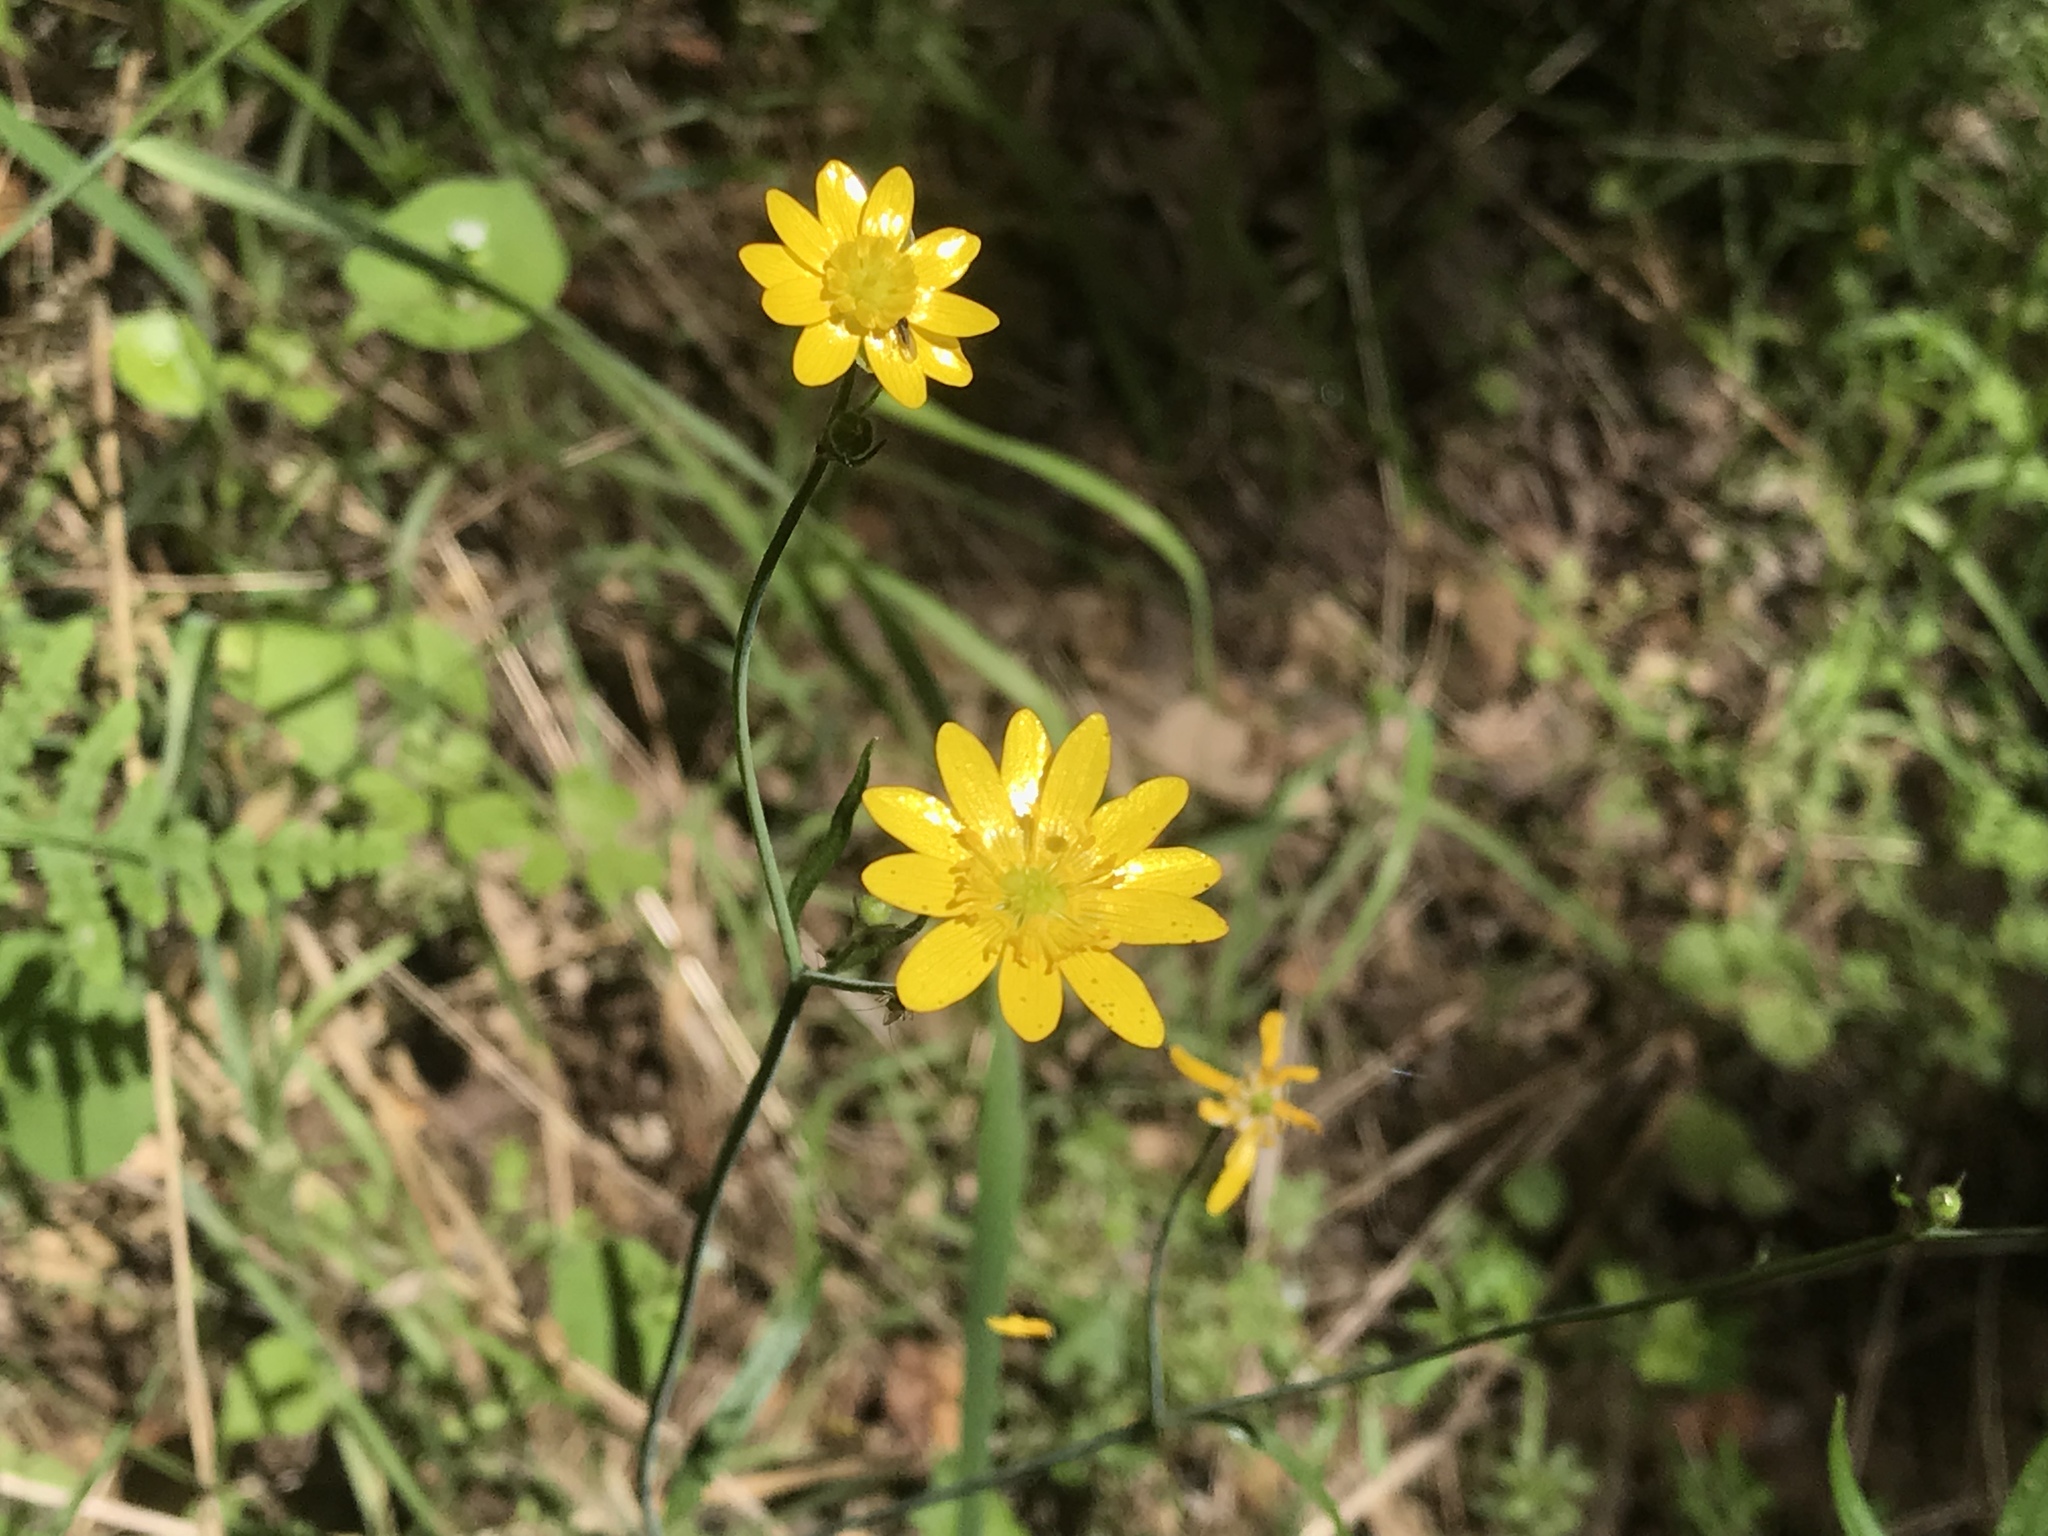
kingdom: Plantae
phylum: Tracheophyta
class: Magnoliopsida
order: Ranunculales
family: Ranunculaceae
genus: Ranunculus
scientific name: Ranunculus californicus
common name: California buttercup
